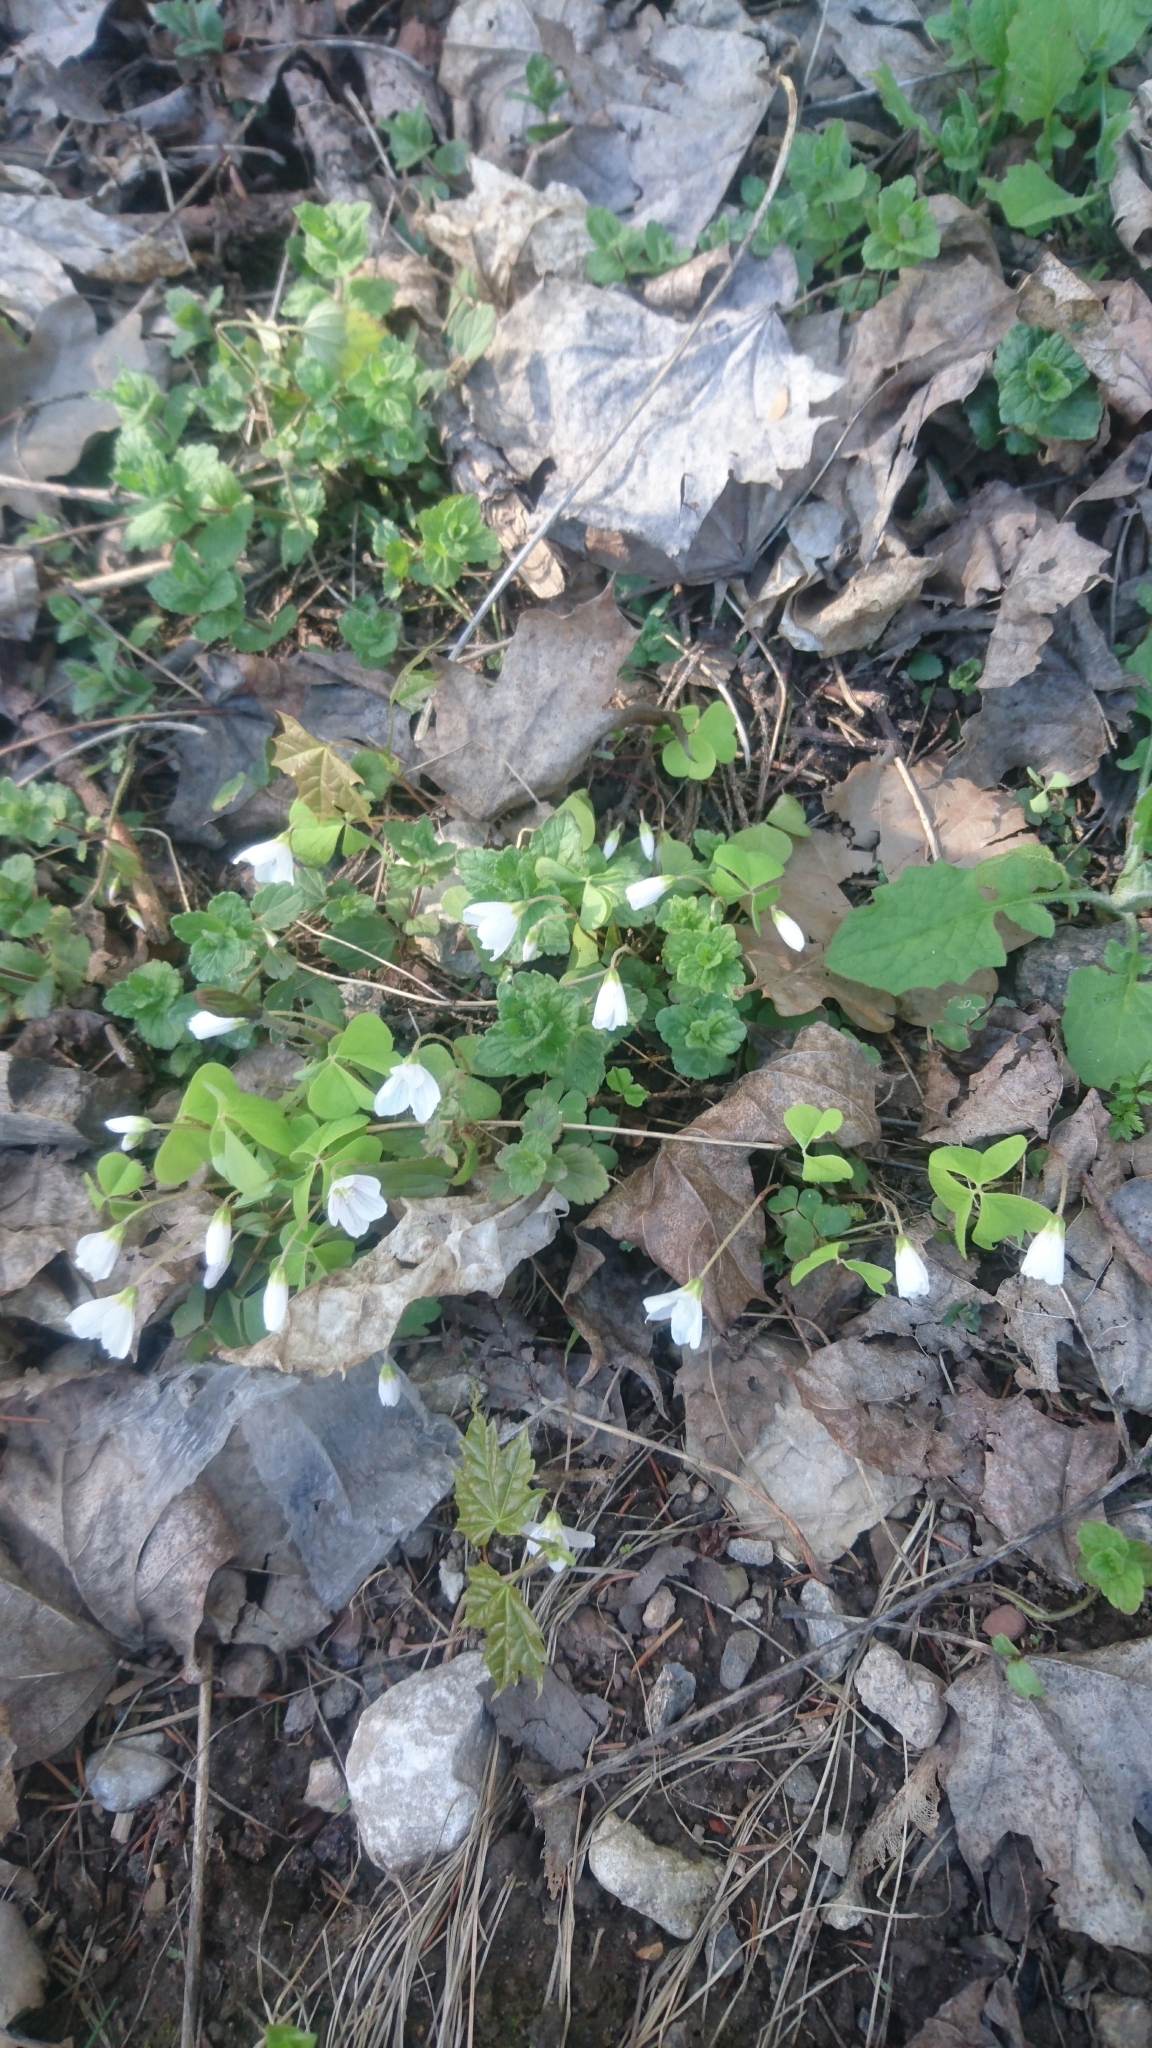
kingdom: Plantae
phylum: Tracheophyta
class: Magnoliopsida
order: Oxalidales
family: Oxalidaceae
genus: Oxalis
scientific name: Oxalis acetosella
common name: Wood-sorrel
